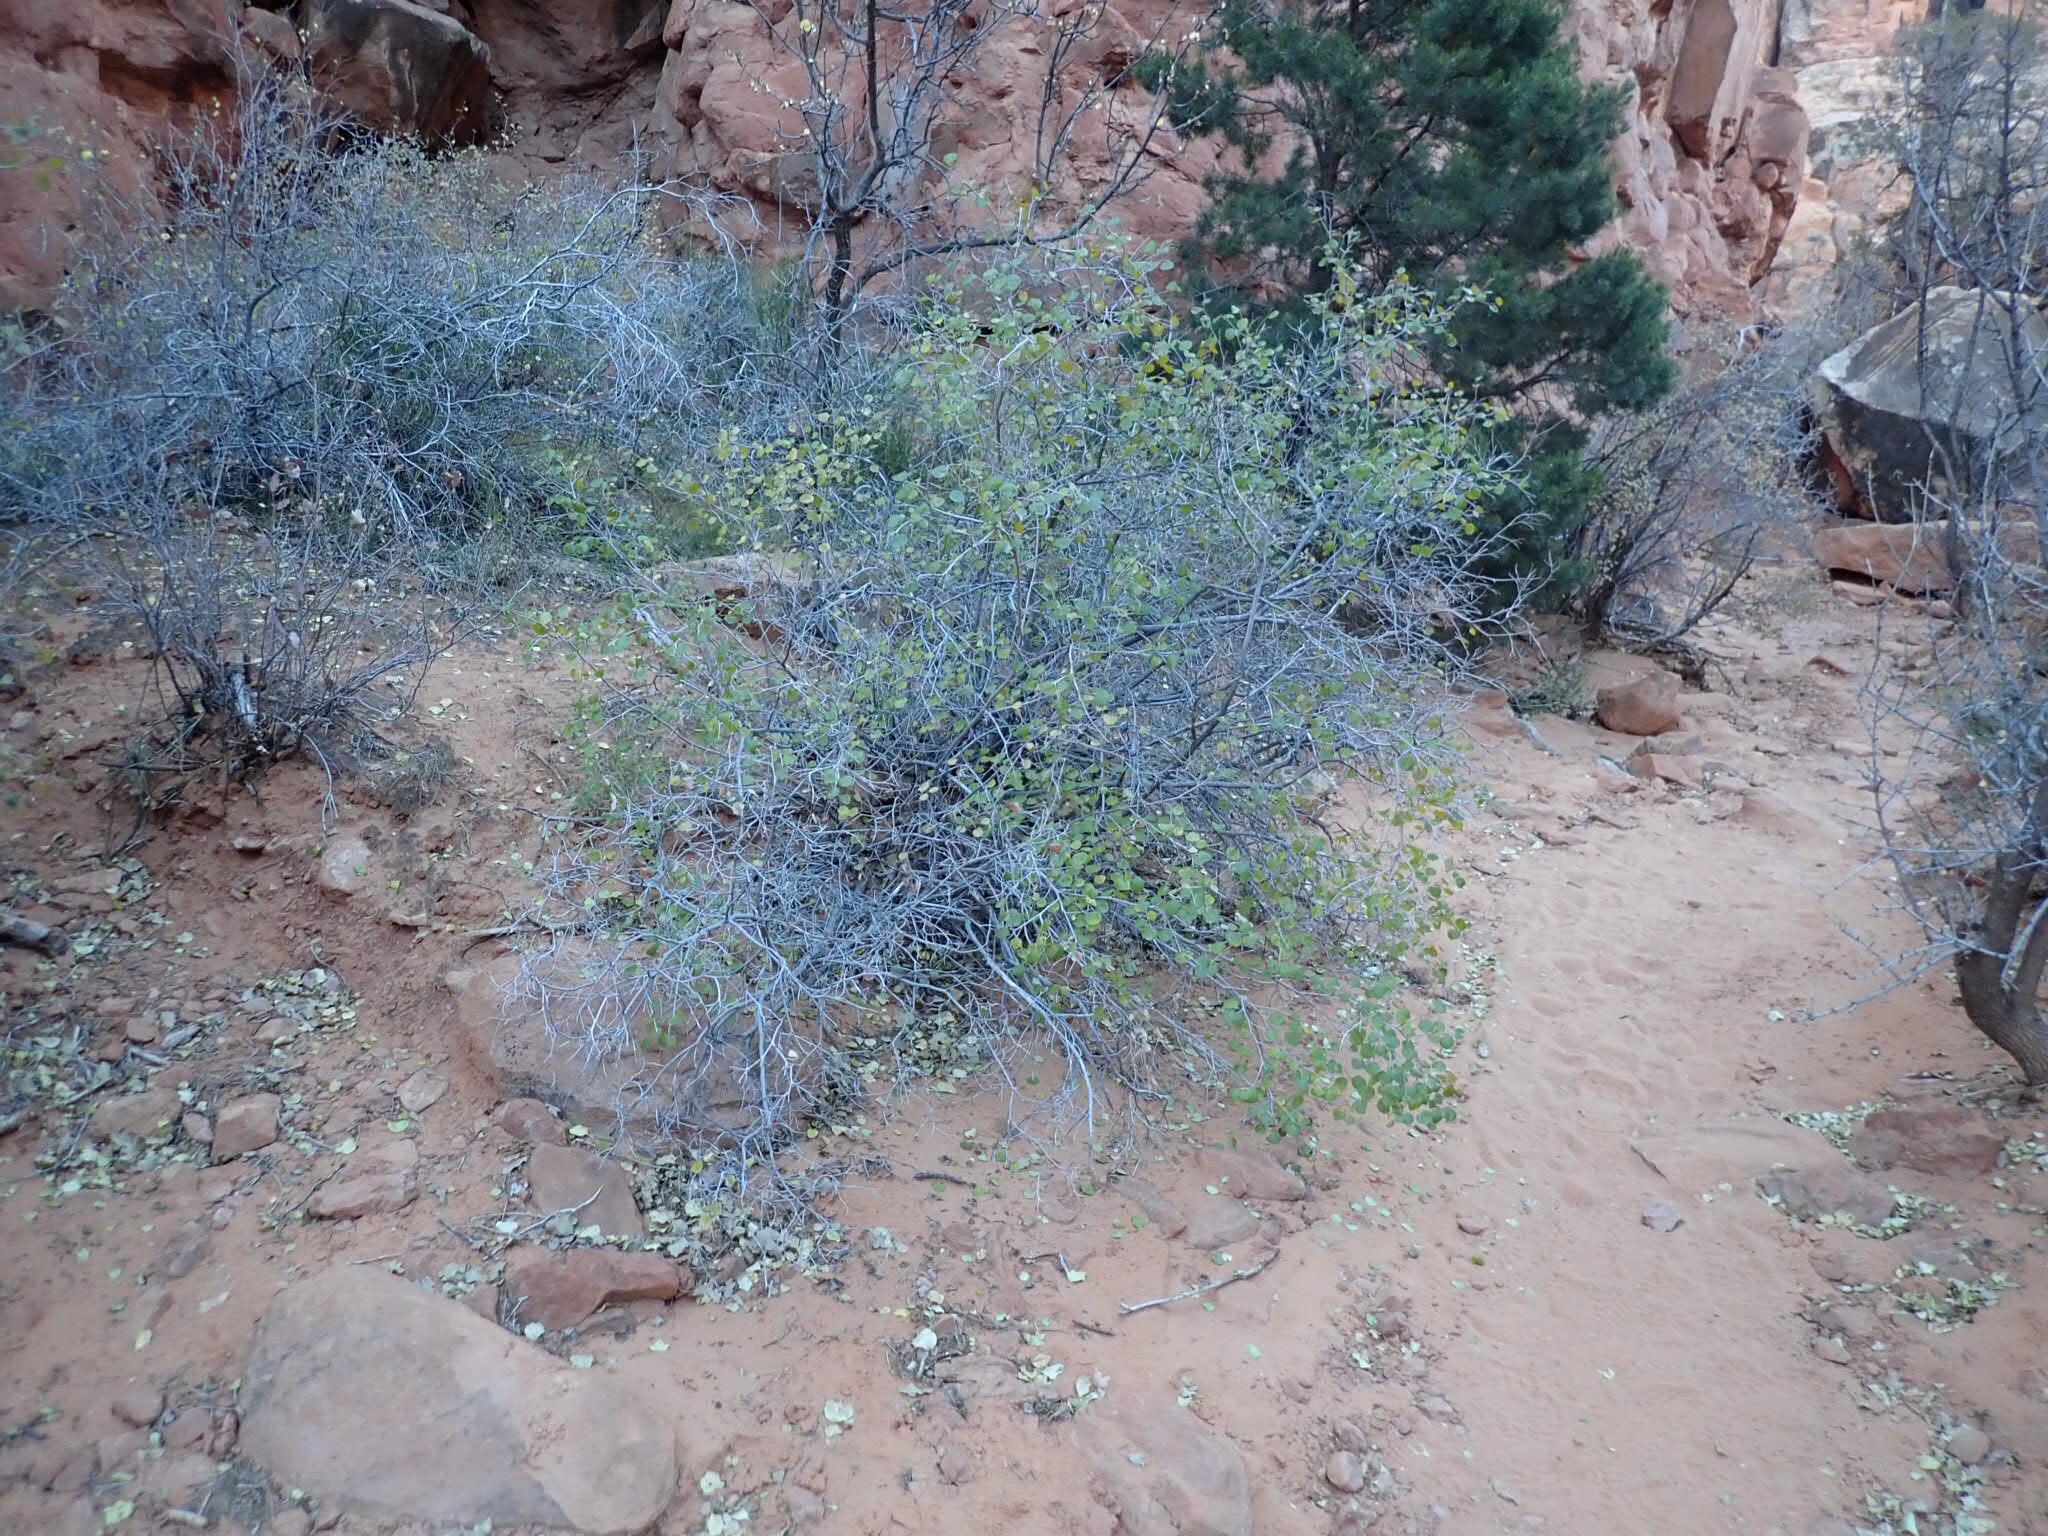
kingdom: Plantae
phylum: Tracheophyta
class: Magnoliopsida
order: Malpighiales
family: Salicaceae
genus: Populus
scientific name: Populus fremontii
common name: Fremont's cottonwood
